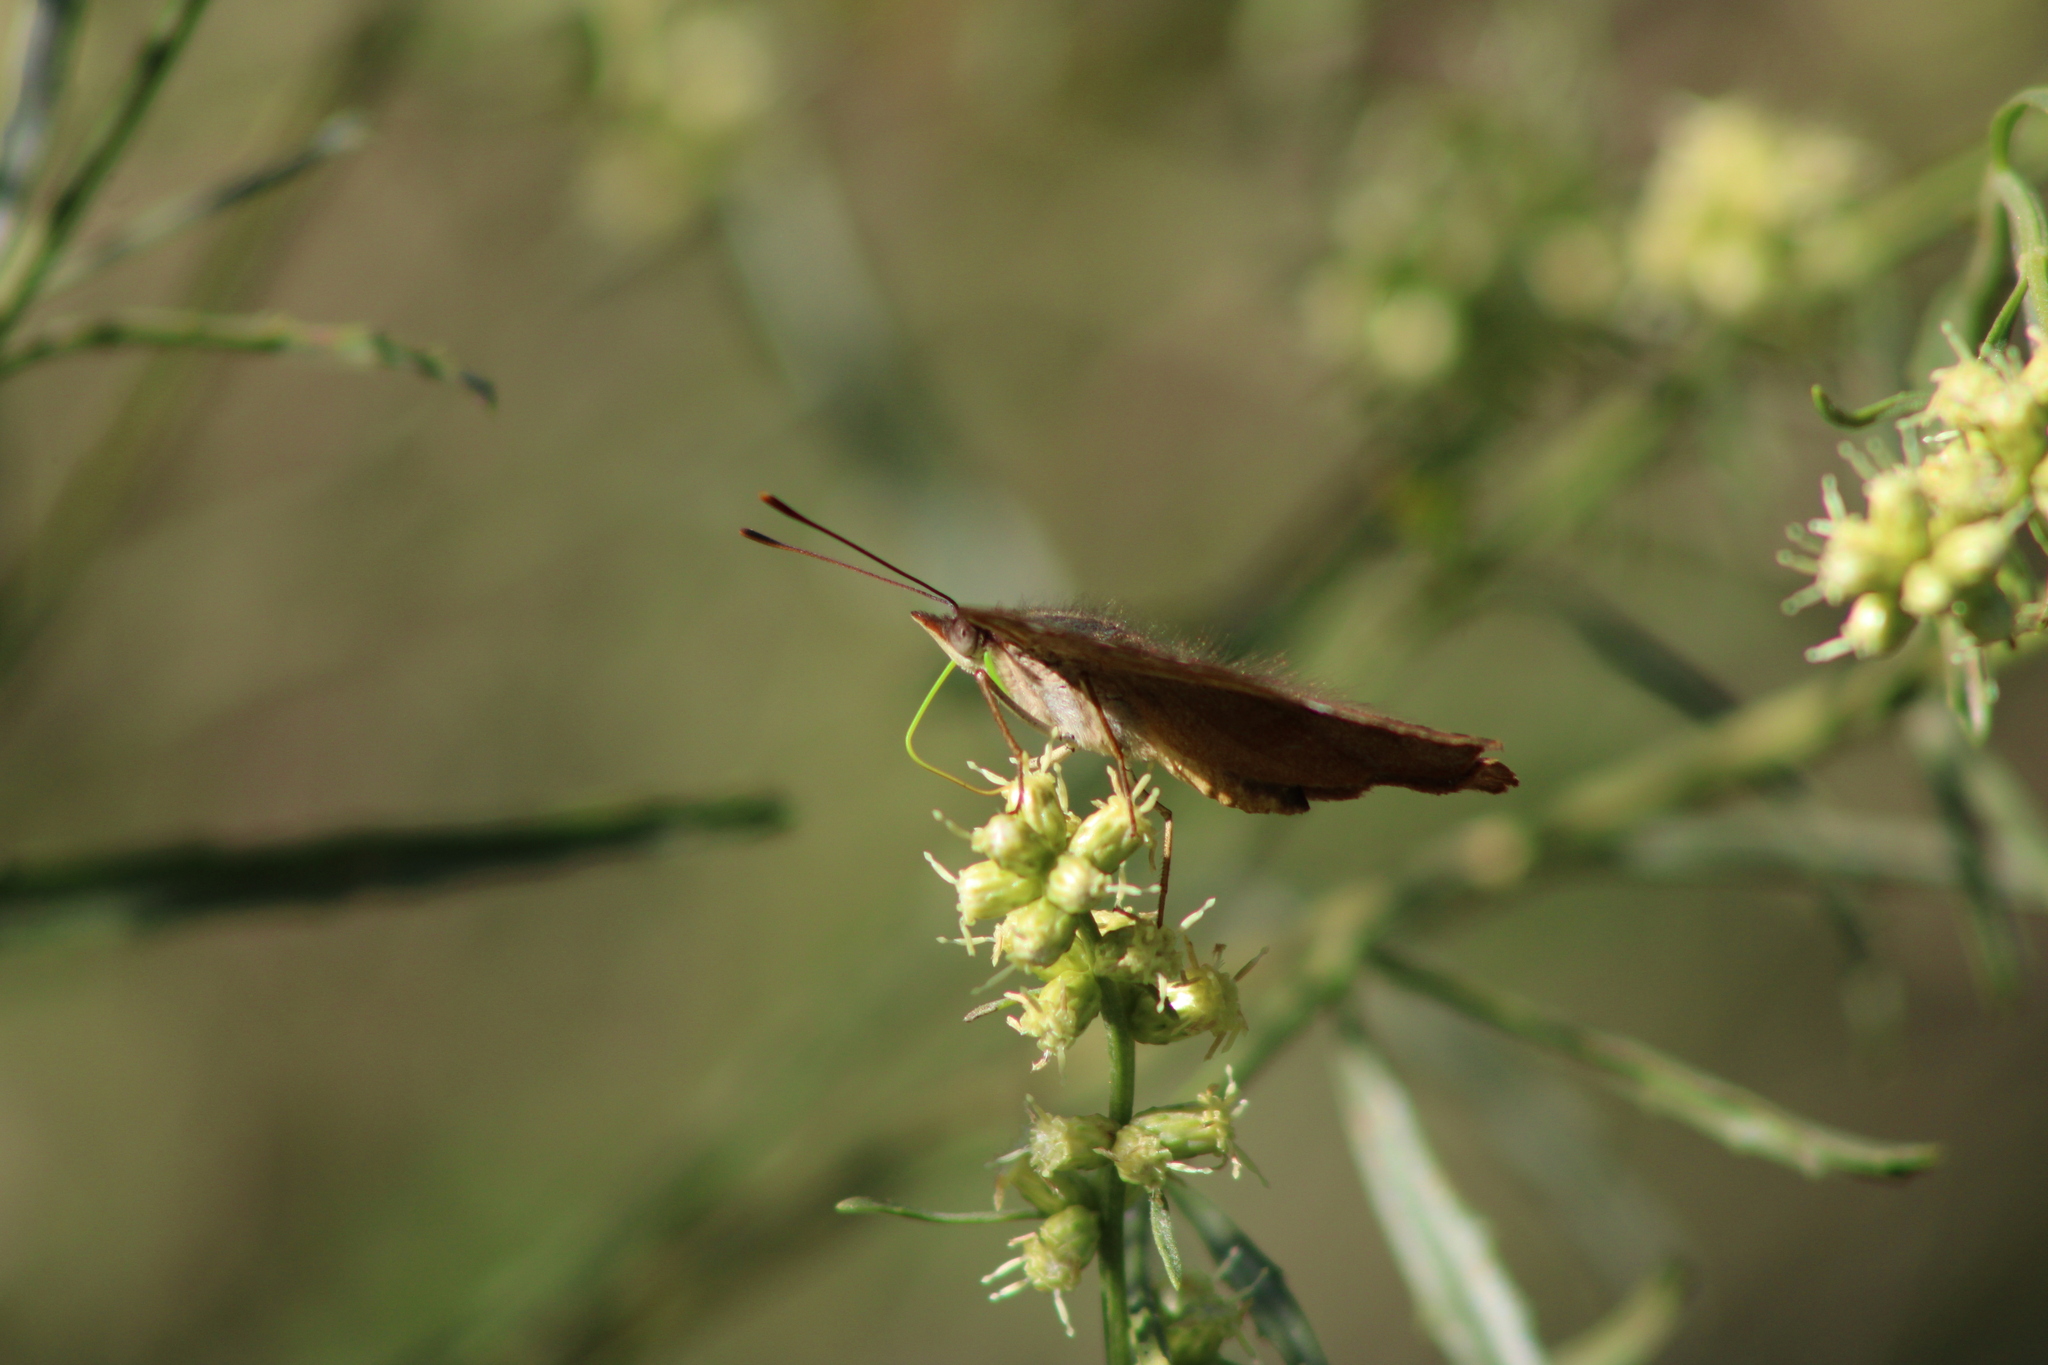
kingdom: Animalia
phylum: Arthropoda
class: Insecta
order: Lepidoptera
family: Nymphalidae
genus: Doxocopa
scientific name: Doxocopa kallina
